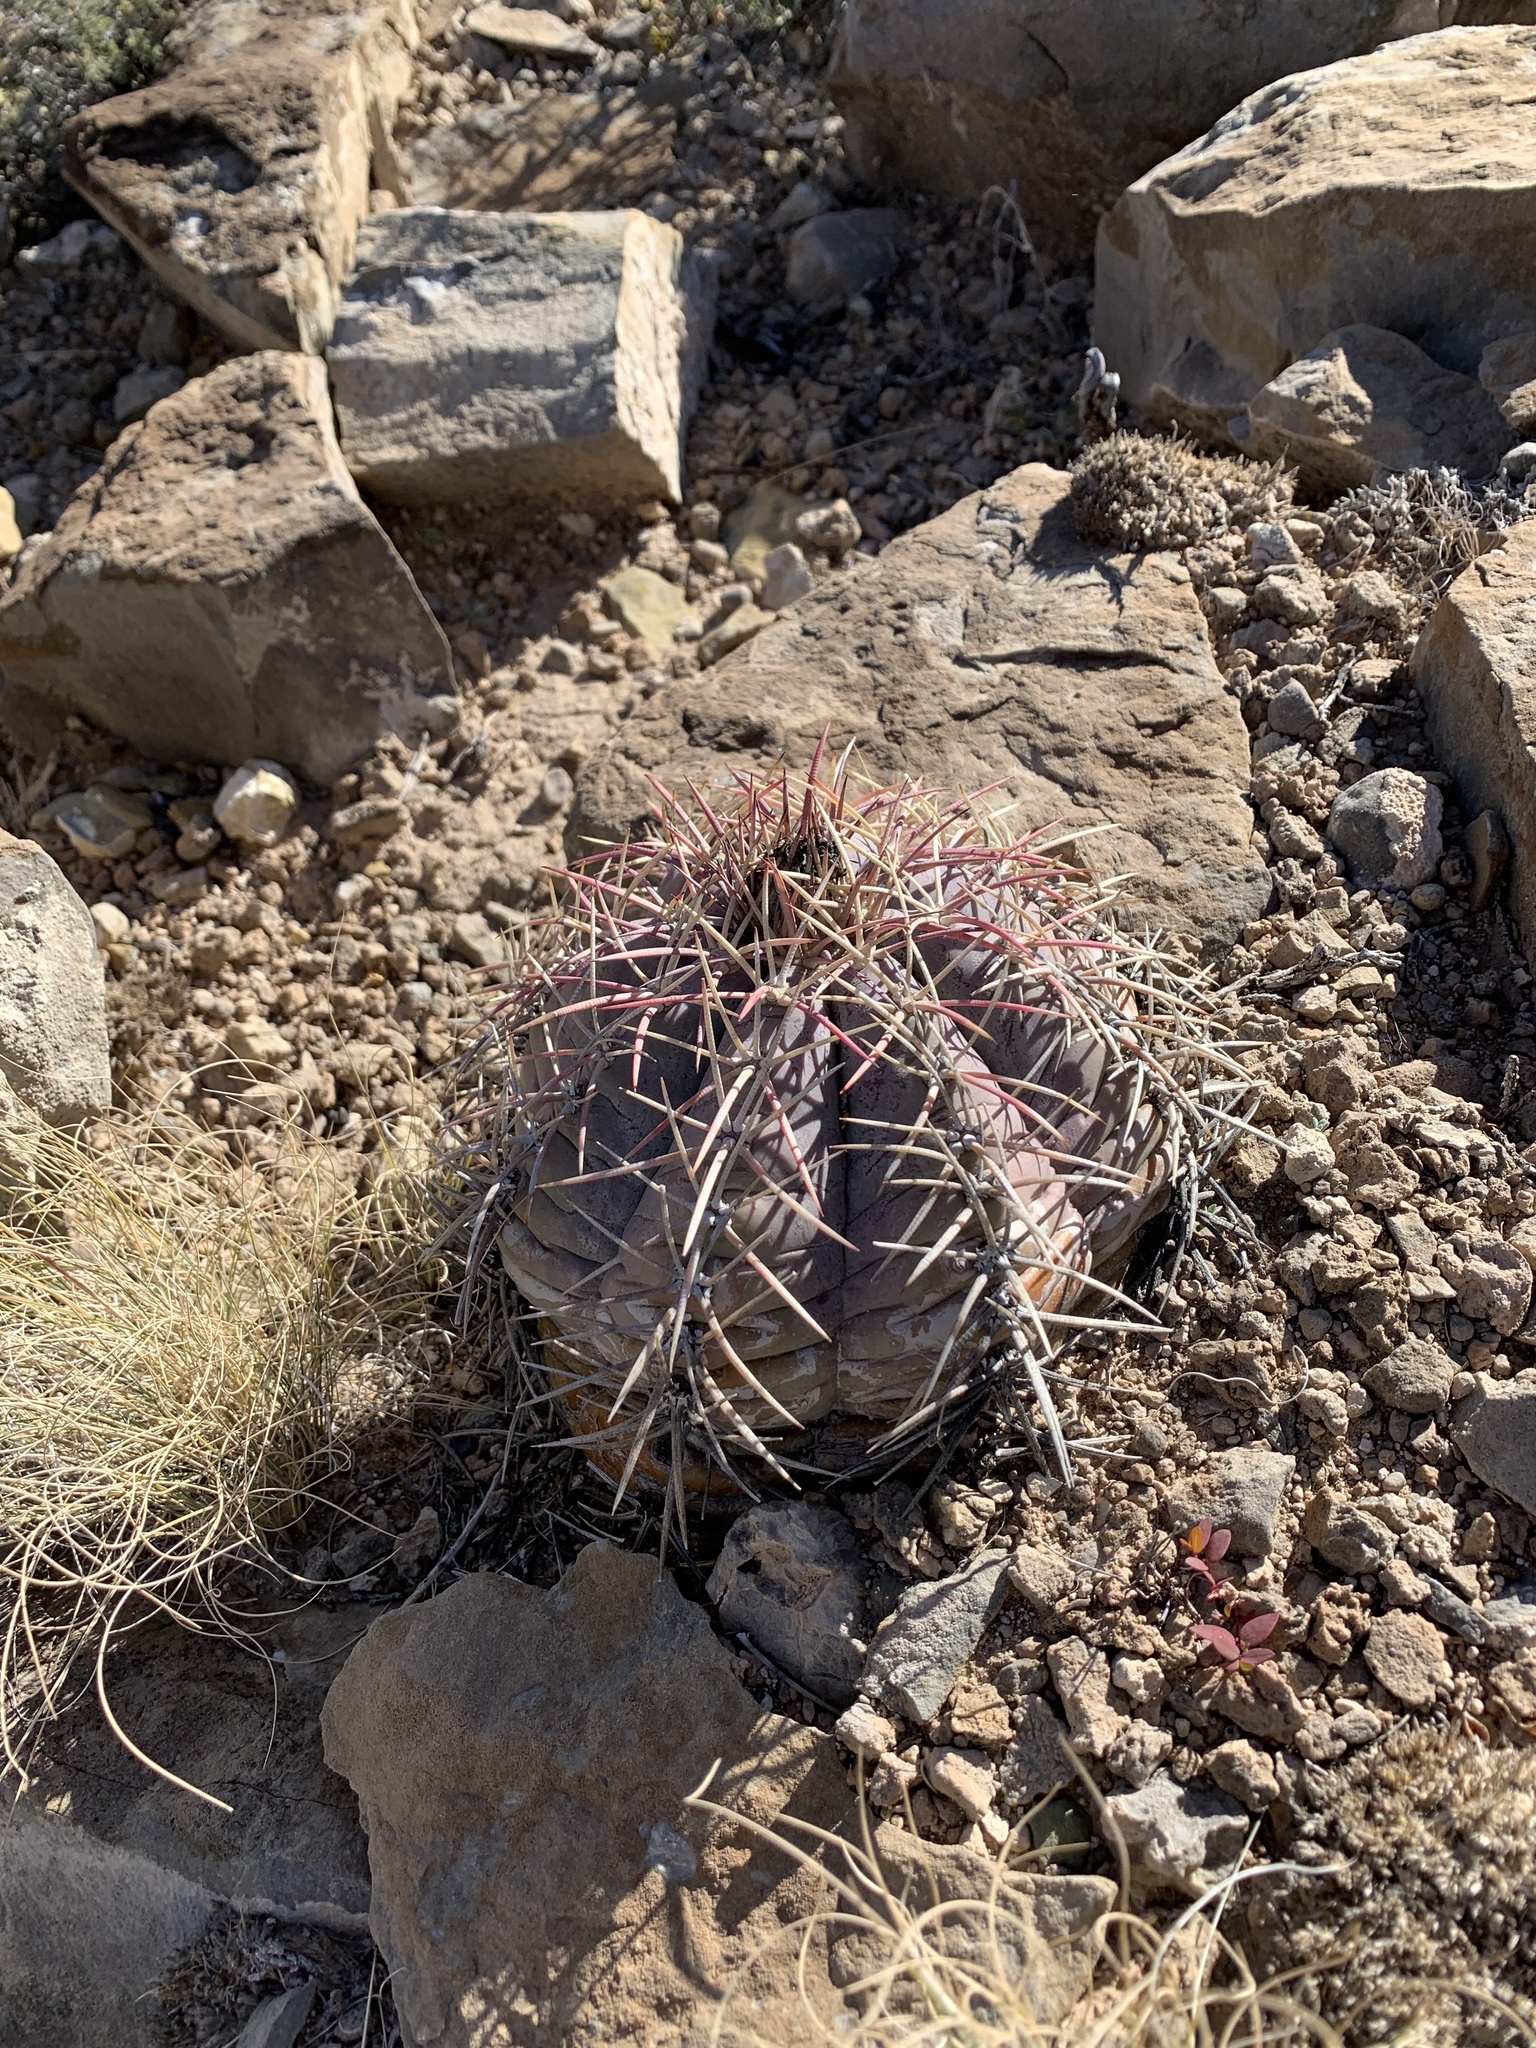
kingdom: Plantae
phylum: Tracheophyta
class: Magnoliopsida
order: Caryophyllales
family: Cactaceae
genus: Echinocactus
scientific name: Echinocactus horizonthalonius
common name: Devilshead
